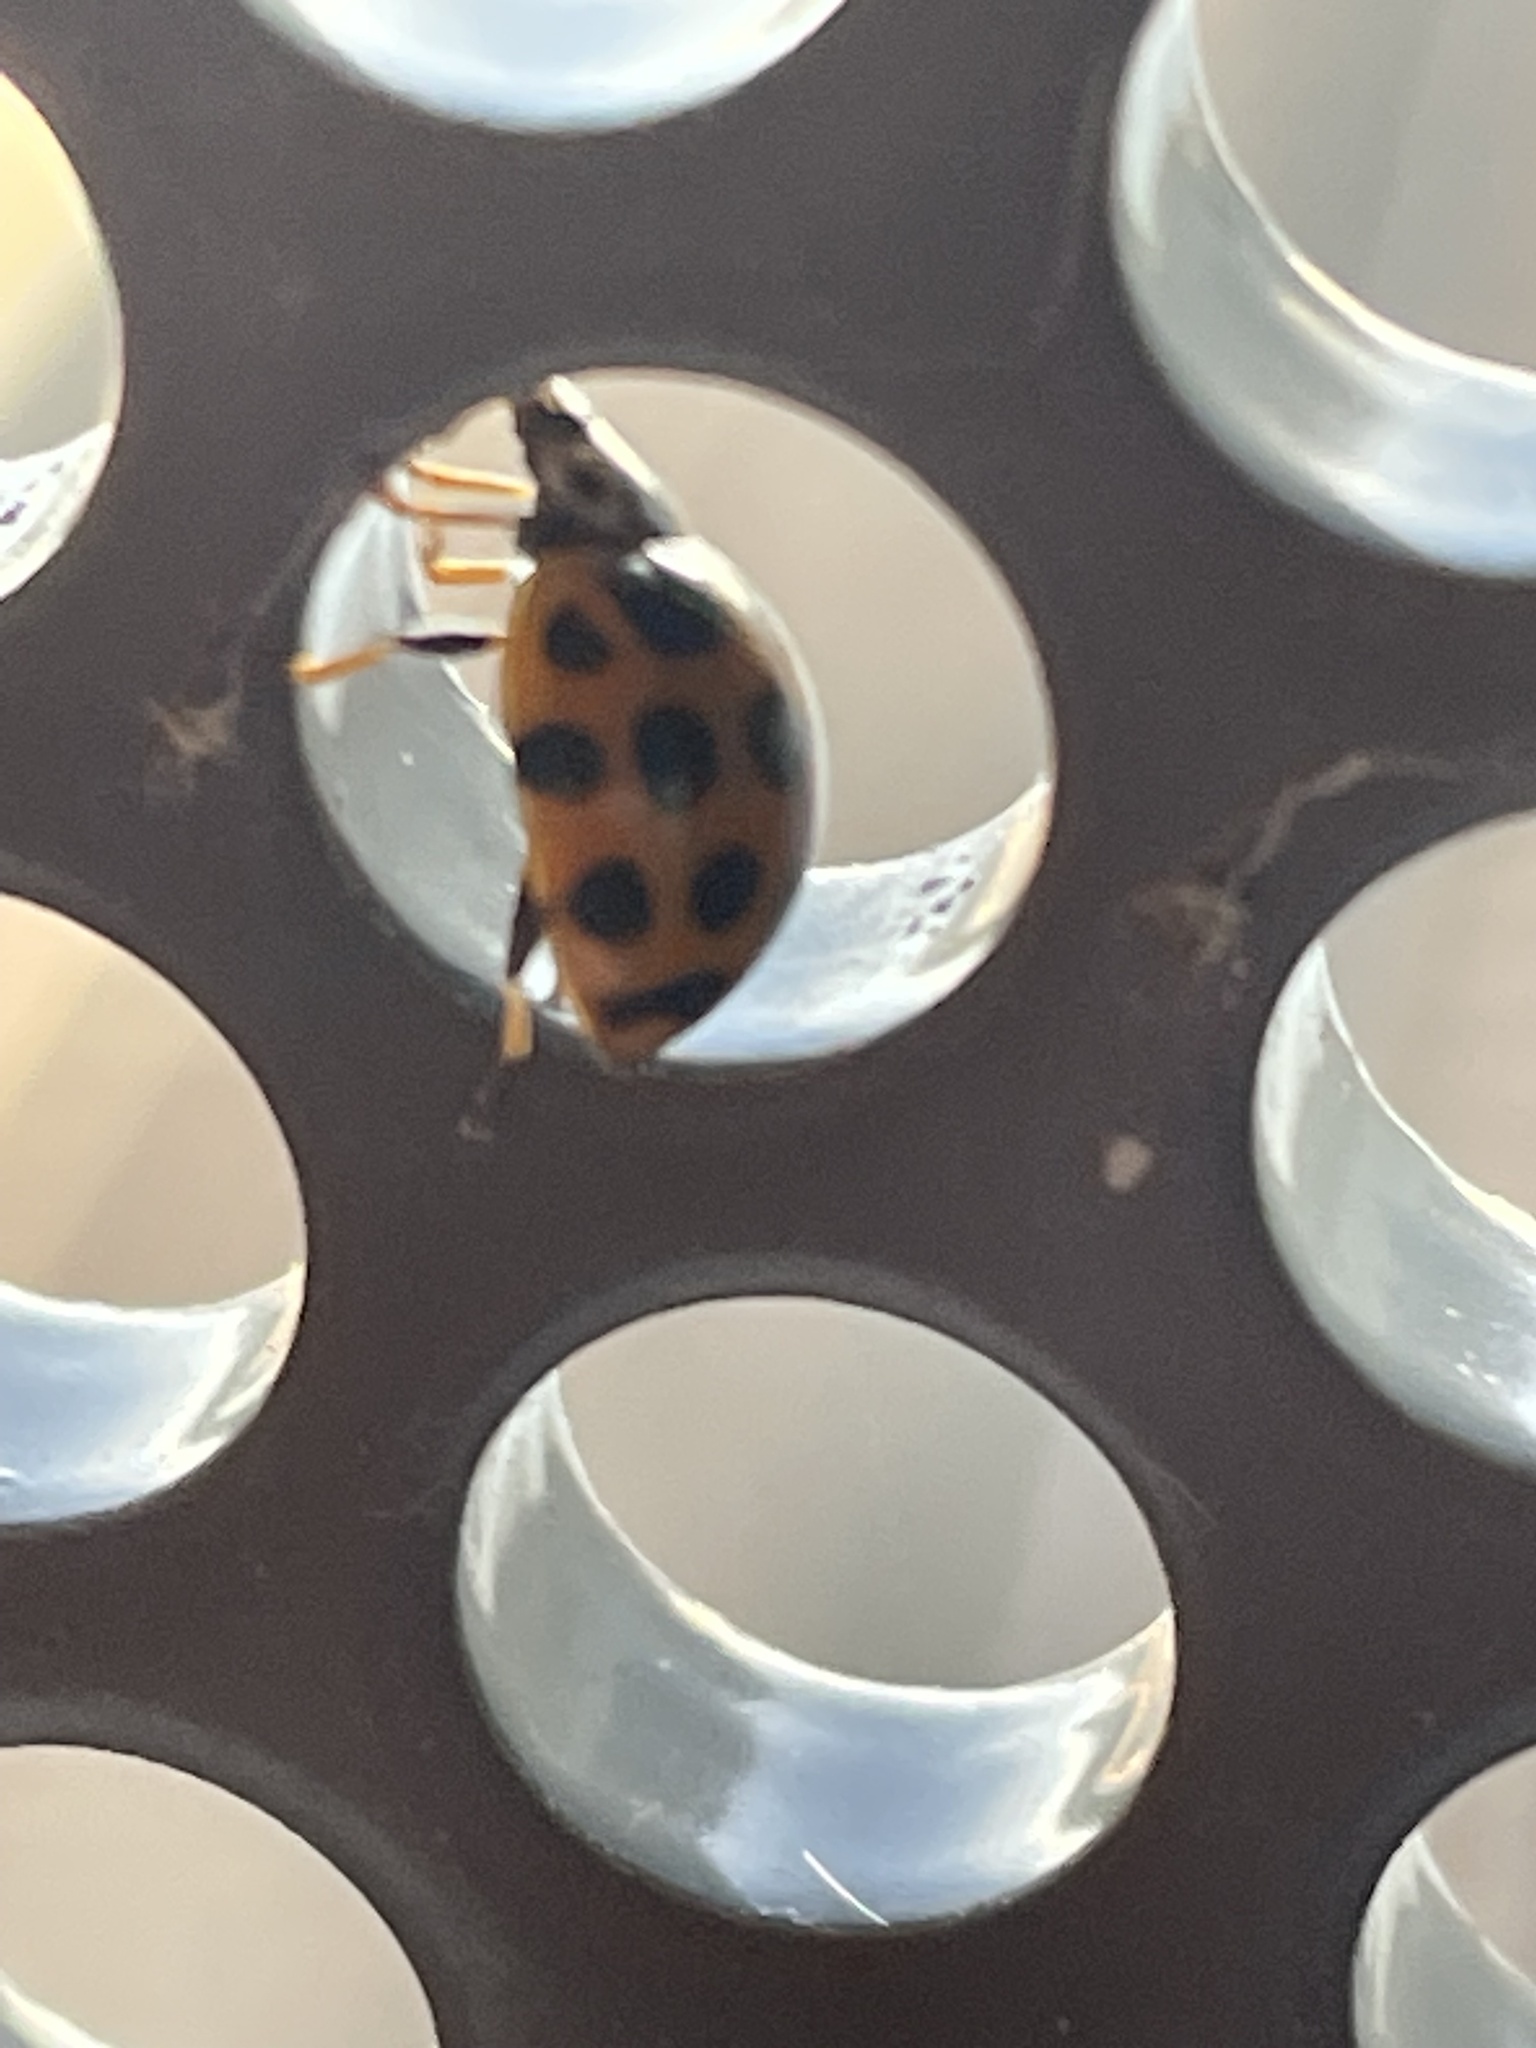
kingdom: Animalia
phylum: Arthropoda
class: Insecta
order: Coleoptera
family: Coccinellidae
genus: Harmonia
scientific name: Harmonia conformis
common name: Common spotted ladybird beetle
